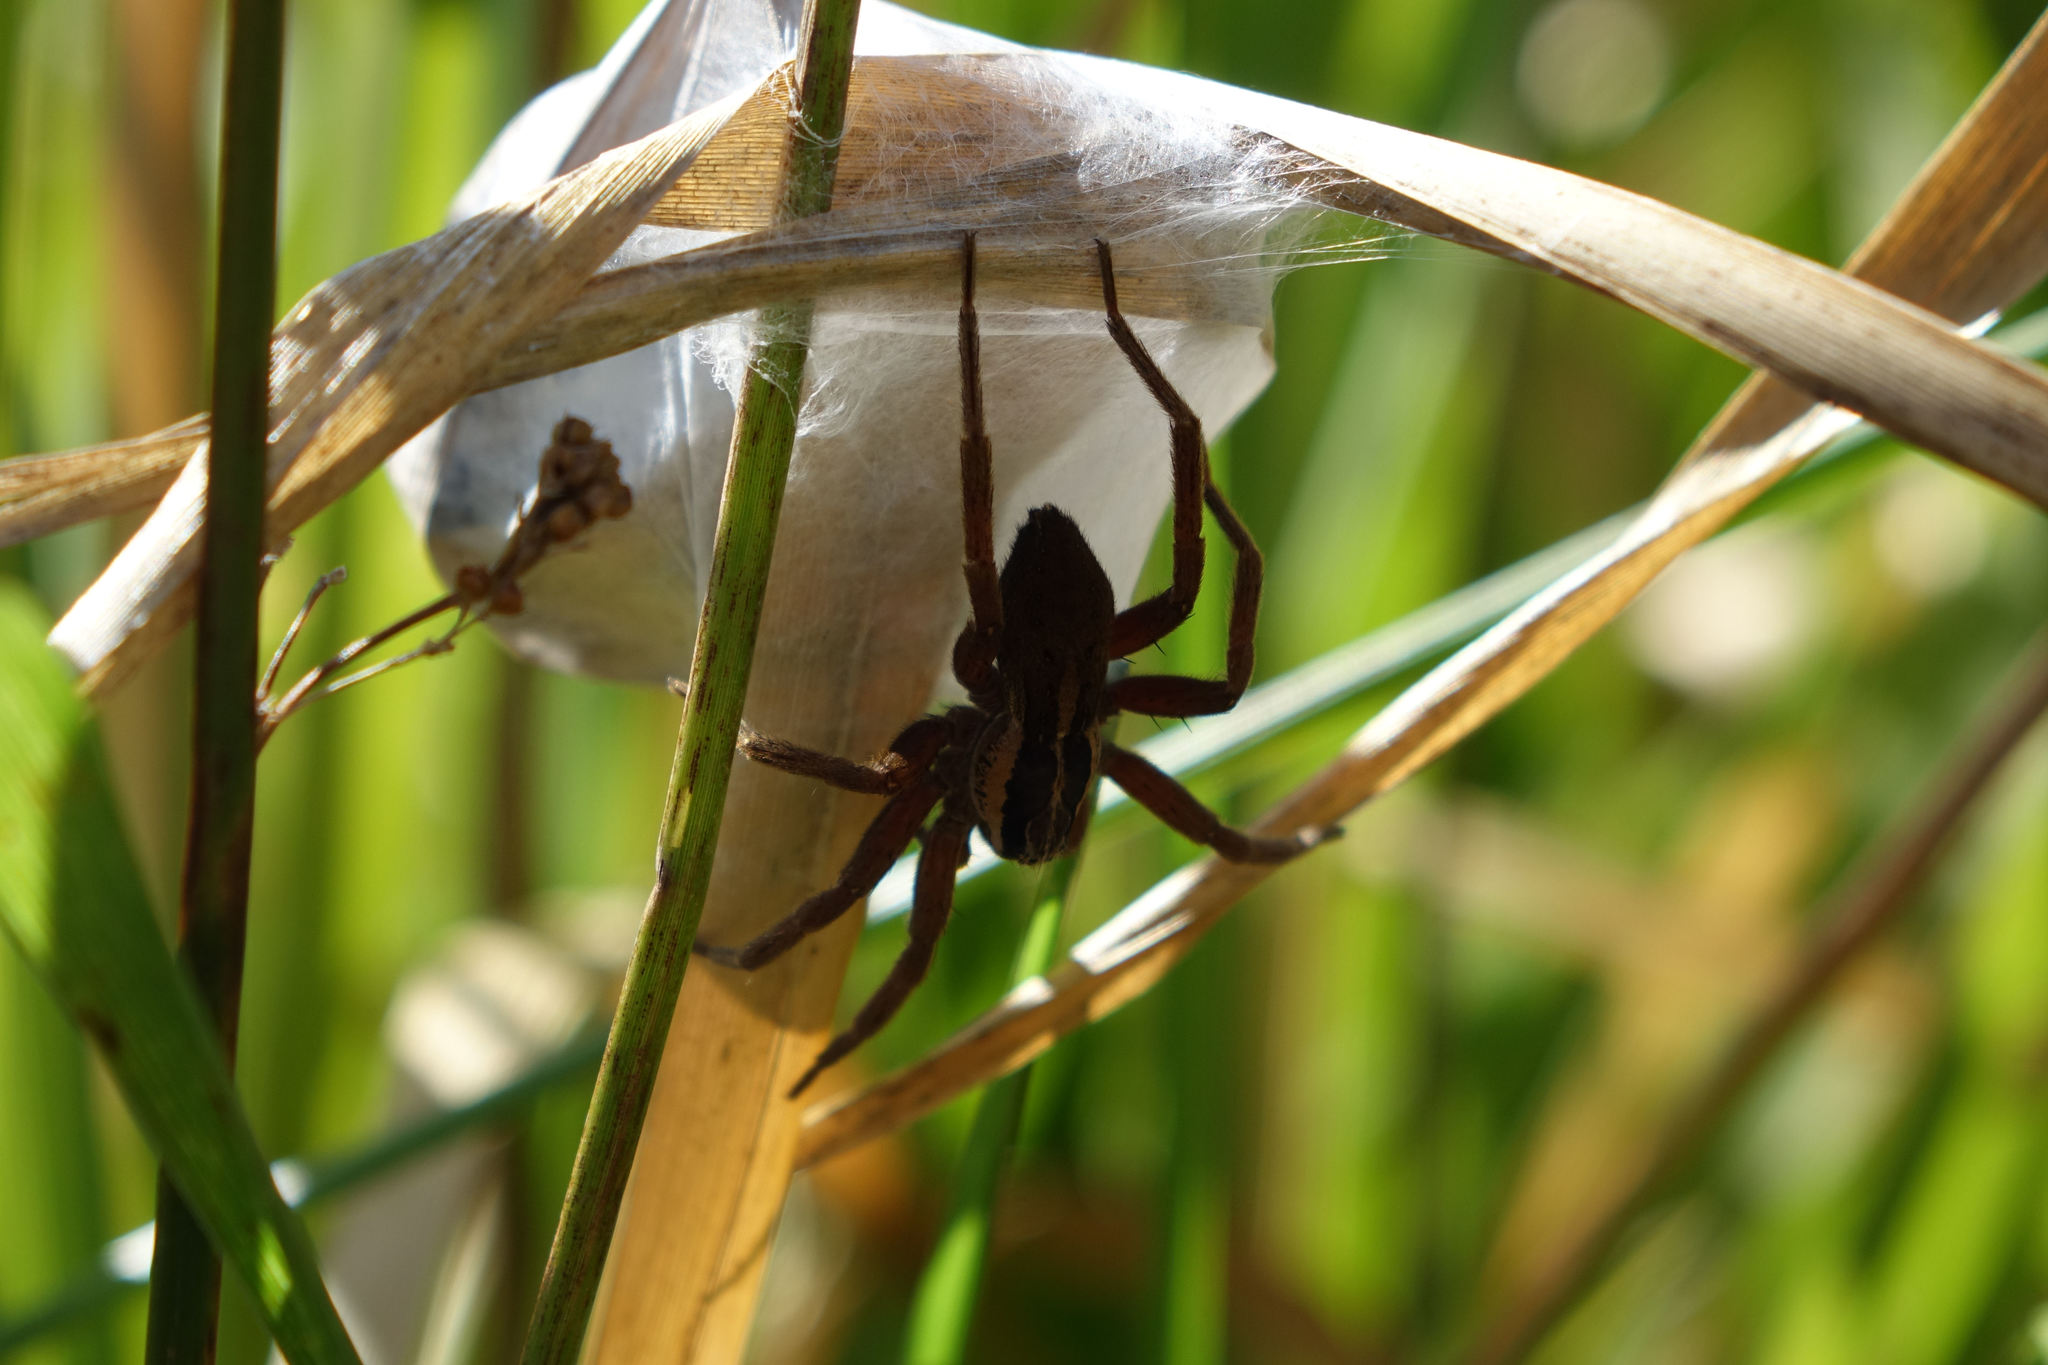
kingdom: Animalia
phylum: Arthropoda
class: Arachnida
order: Araneae
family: Pisauridae
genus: Dolomedes
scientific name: Dolomedes minor
